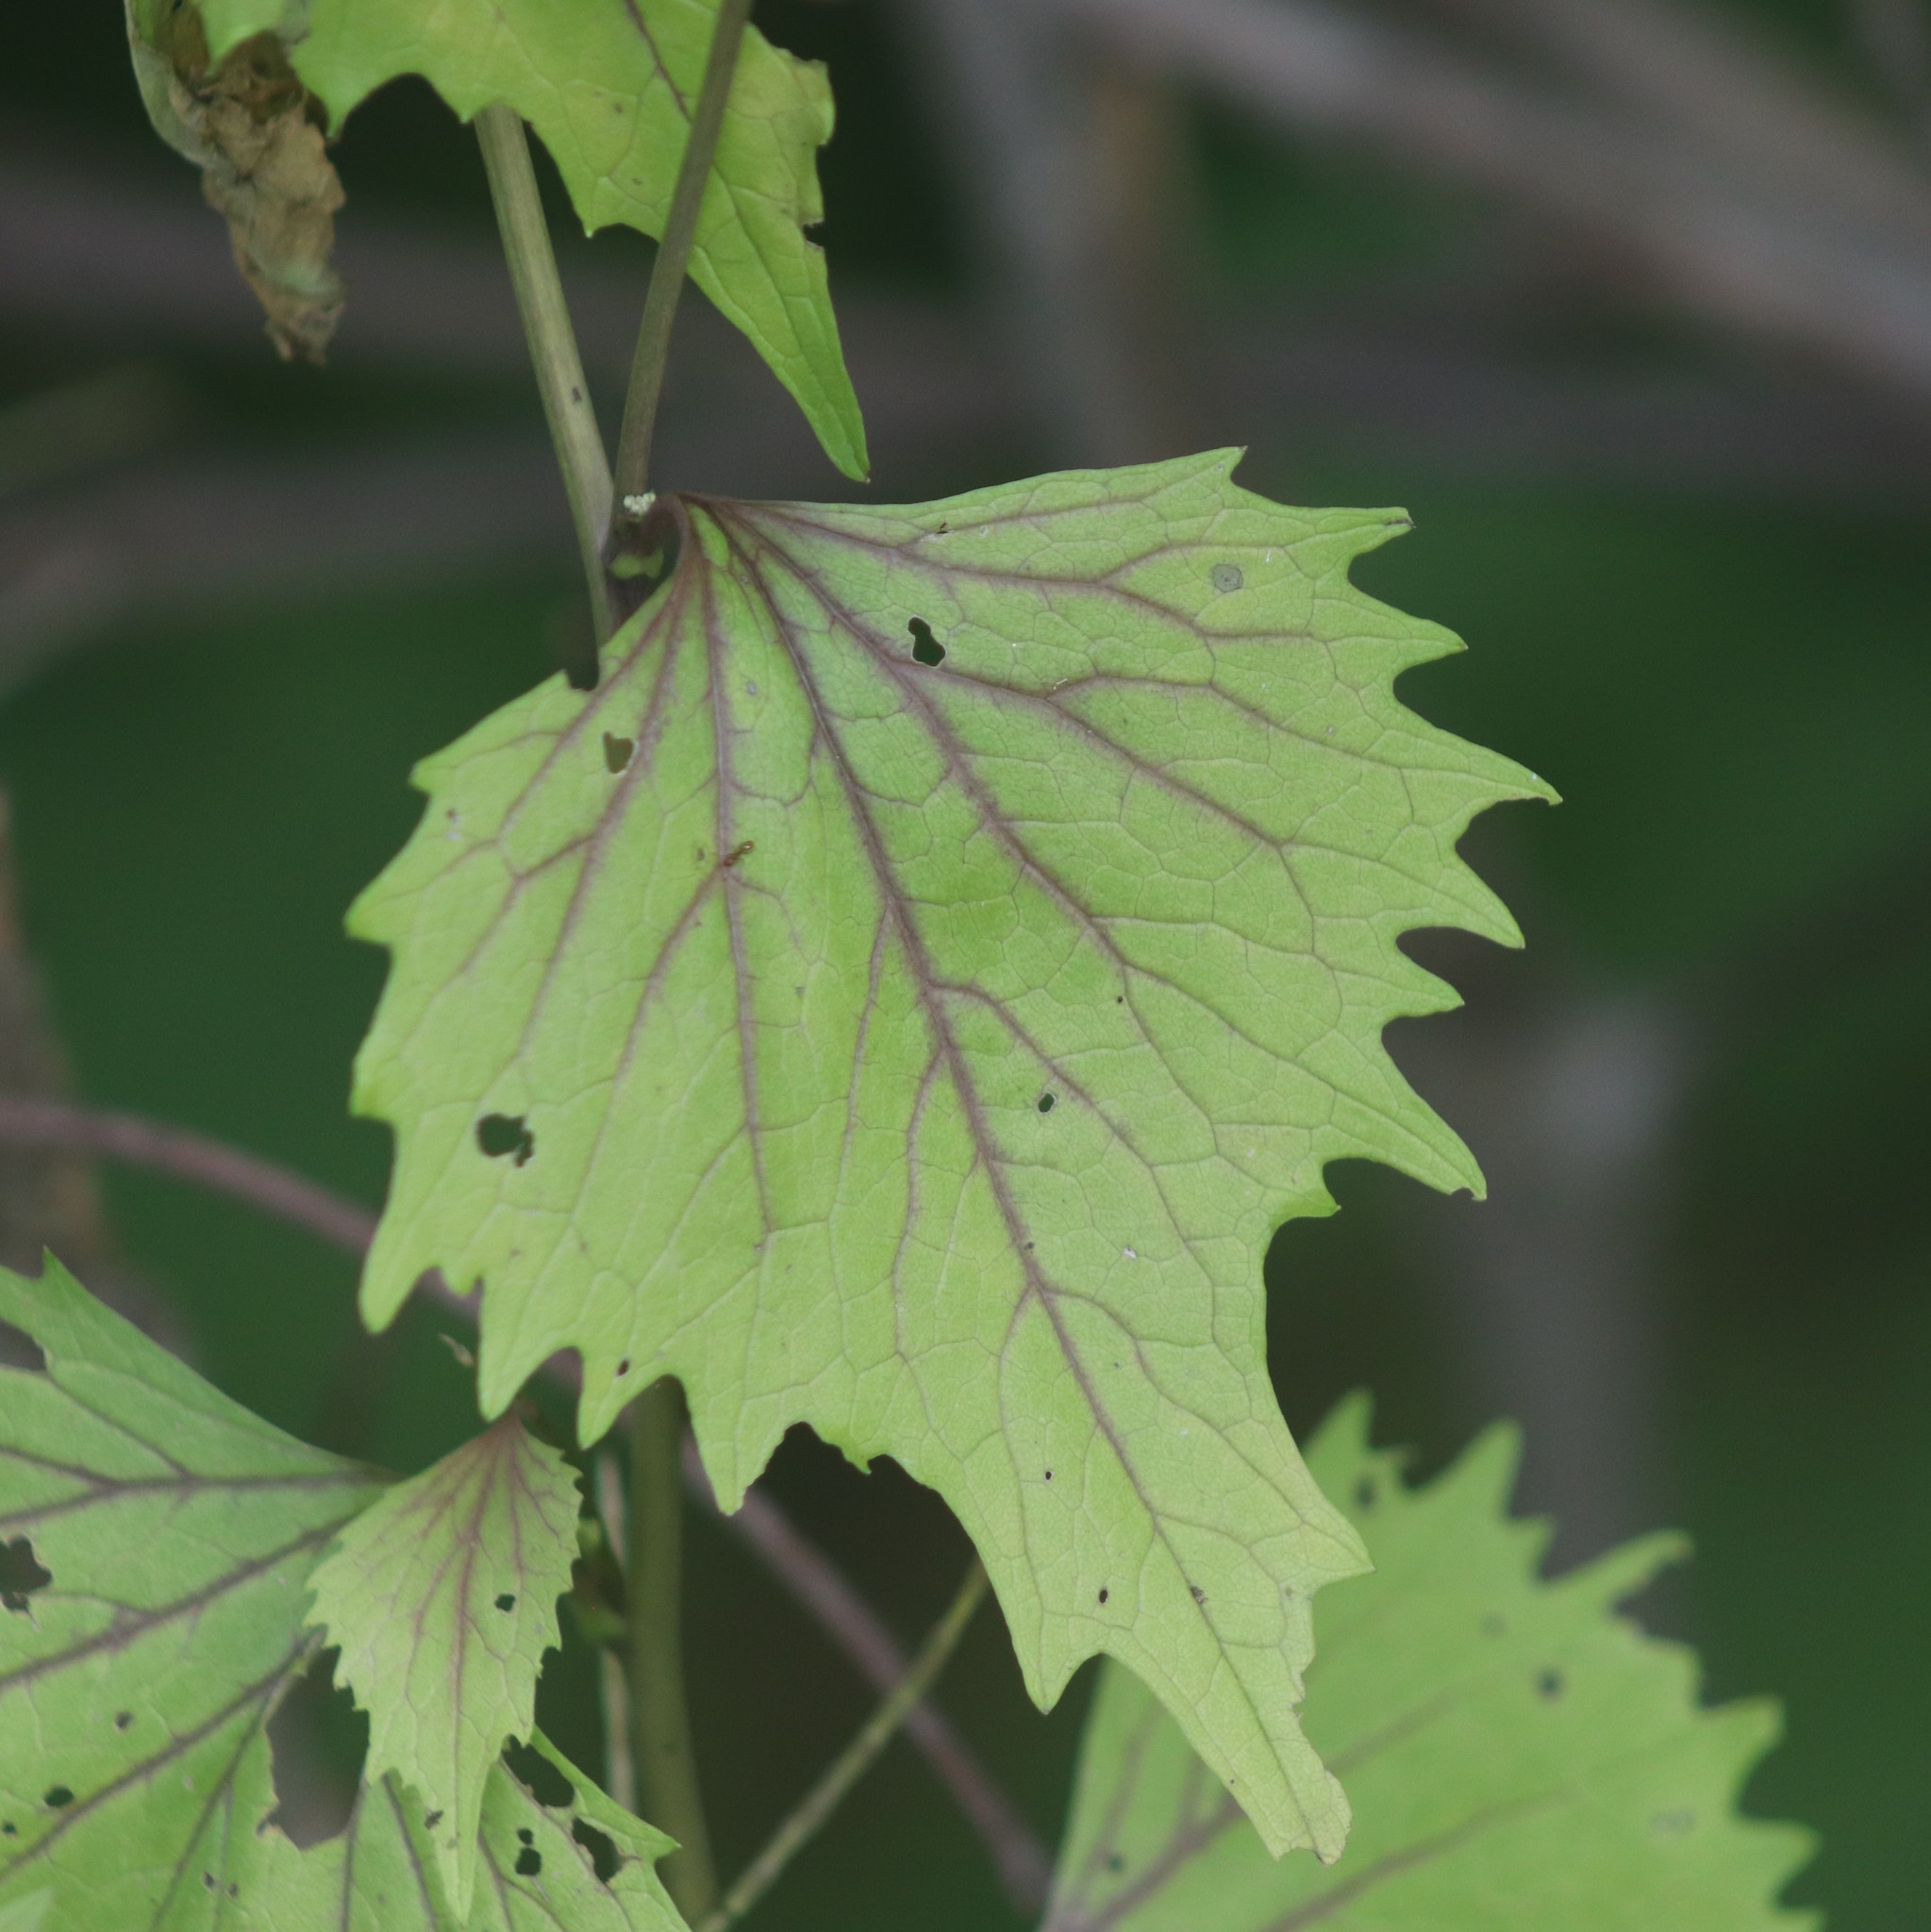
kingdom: Plantae
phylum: Tracheophyta
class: Magnoliopsida
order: Brassicales
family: Brassicaceae
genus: Alliaria
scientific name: Alliaria petiolata
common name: Garlic mustard
